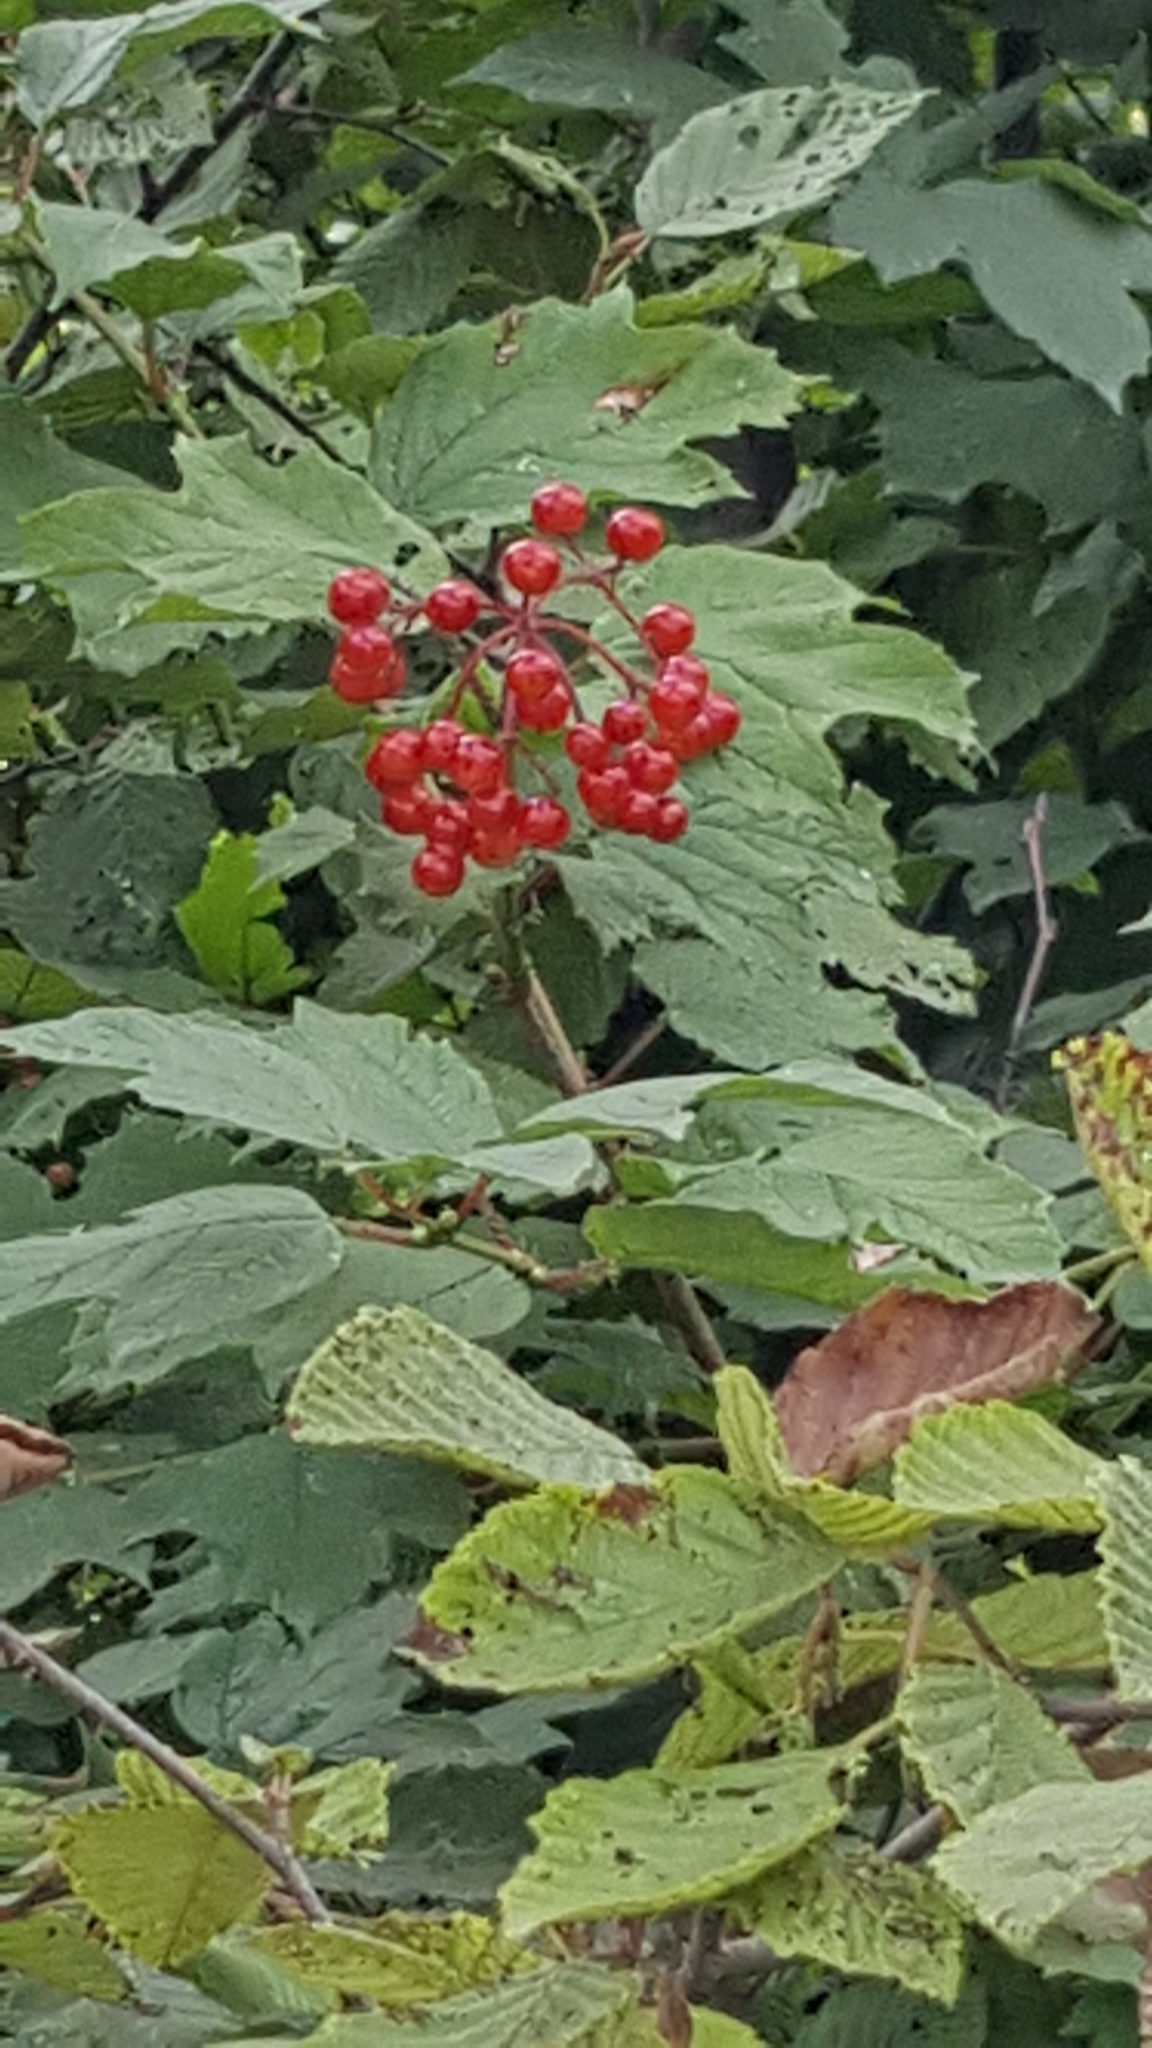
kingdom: Plantae
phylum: Tracheophyta
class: Magnoliopsida
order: Dipsacales
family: Viburnaceae
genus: Viburnum
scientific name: Viburnum opulus
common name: Guelder-rose
